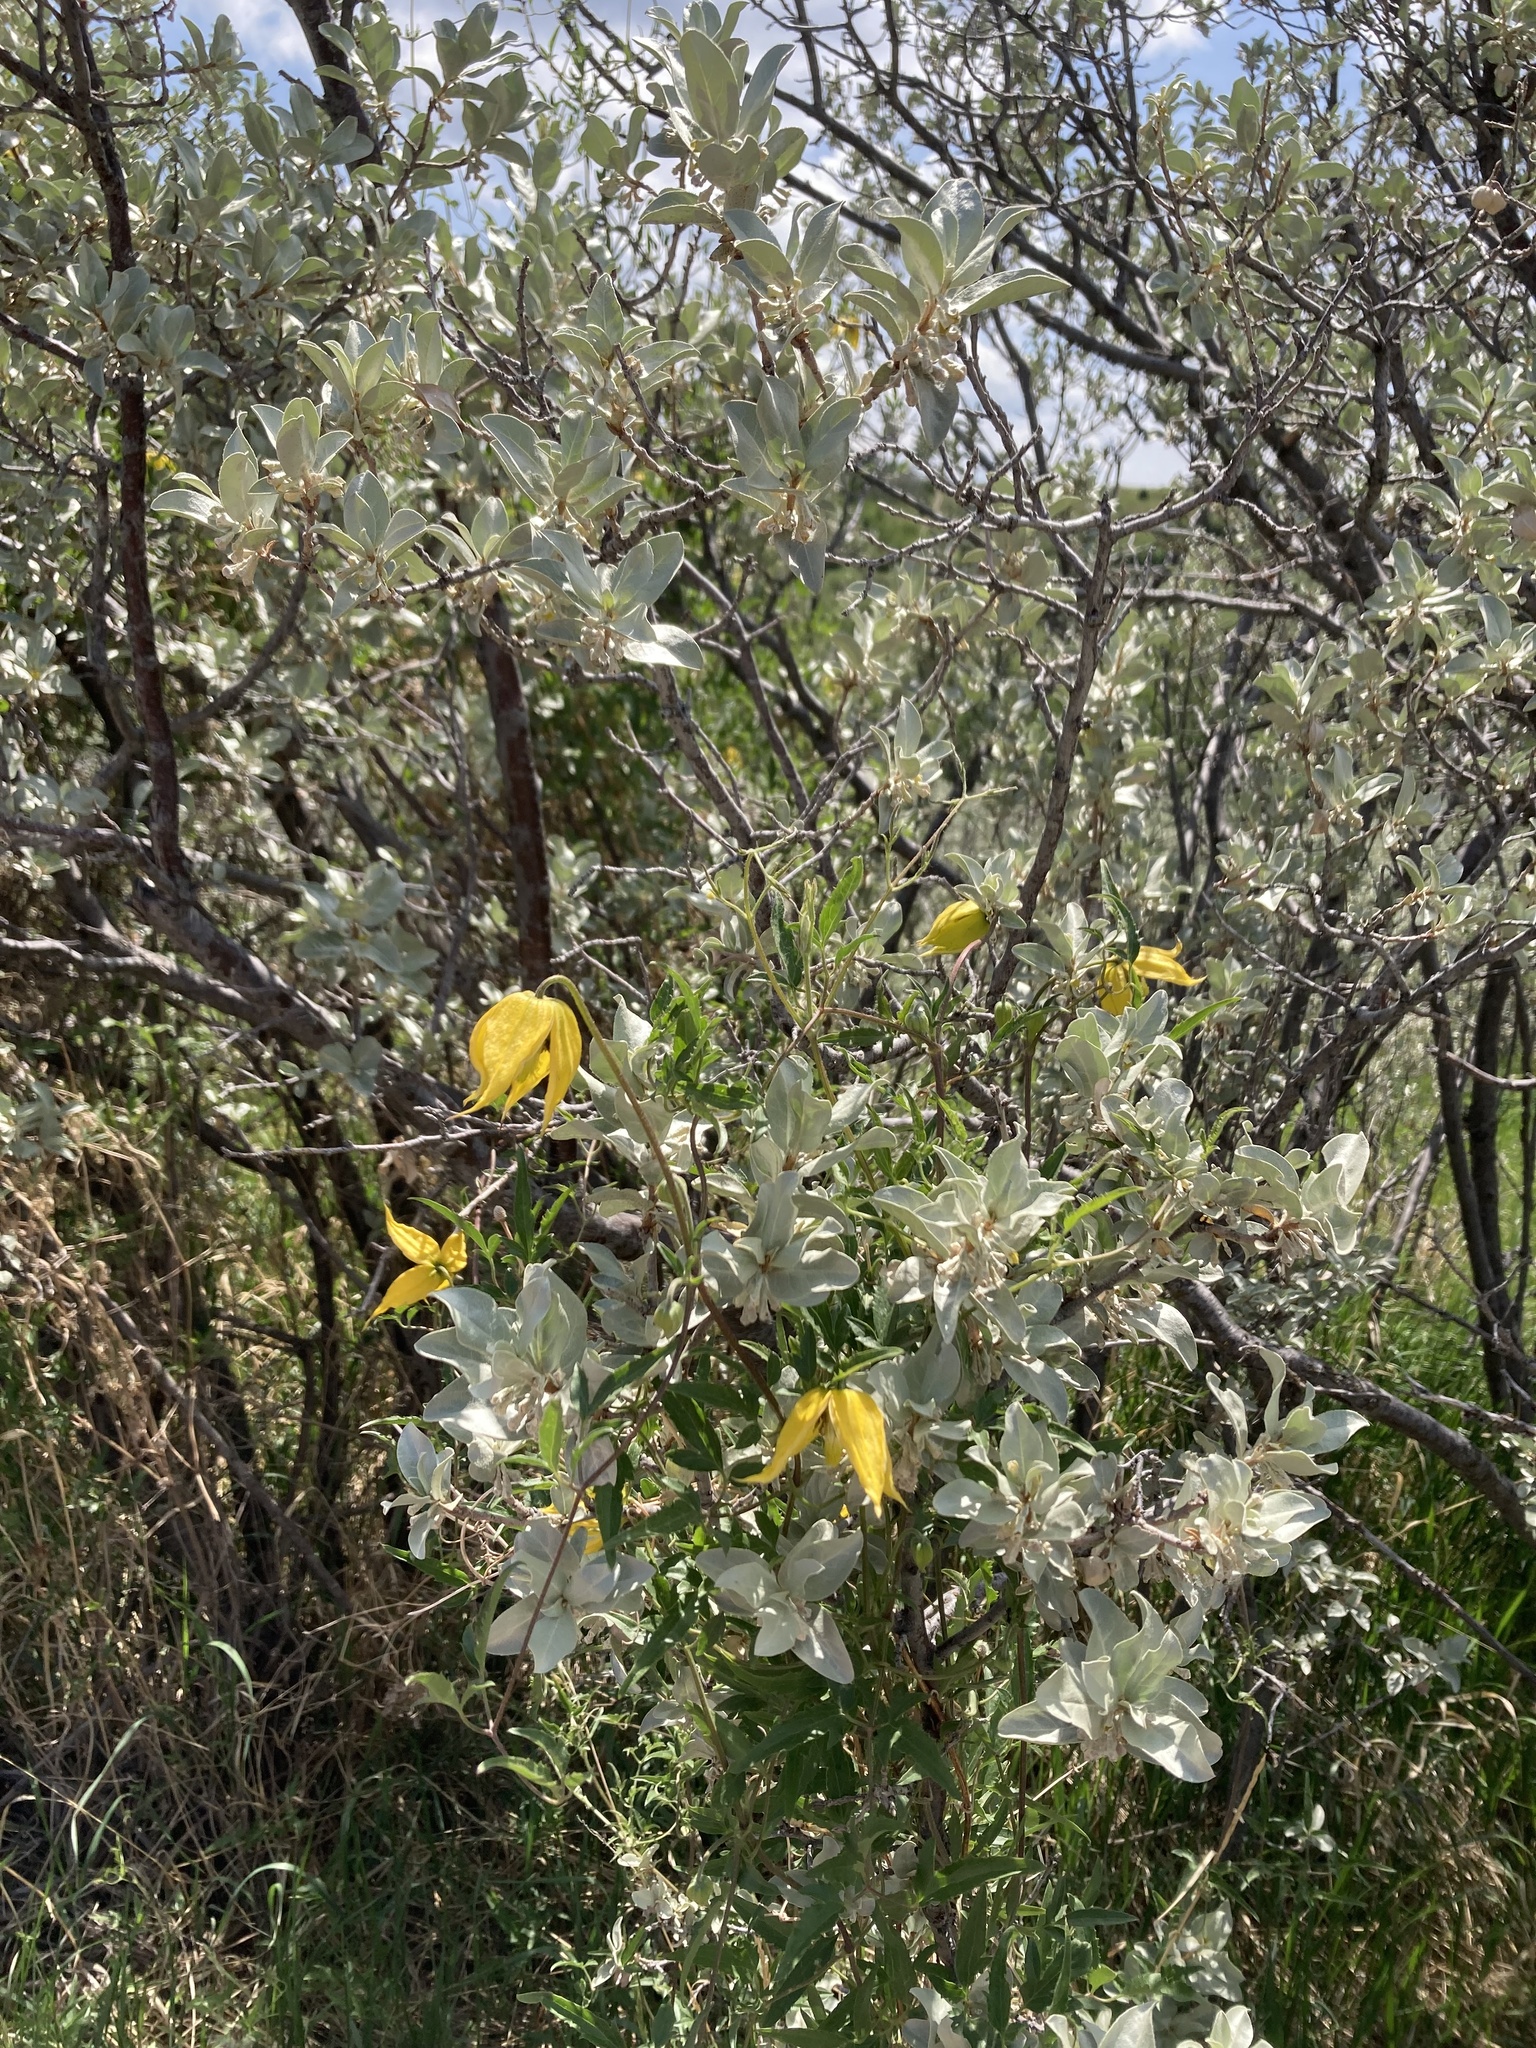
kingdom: Plantae
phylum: Tracheophyta
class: Magnoliopsida
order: Ranunculales
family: Ranunculaceae
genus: Clematis
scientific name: Clematis tangutica
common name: Orange-peel clematis
